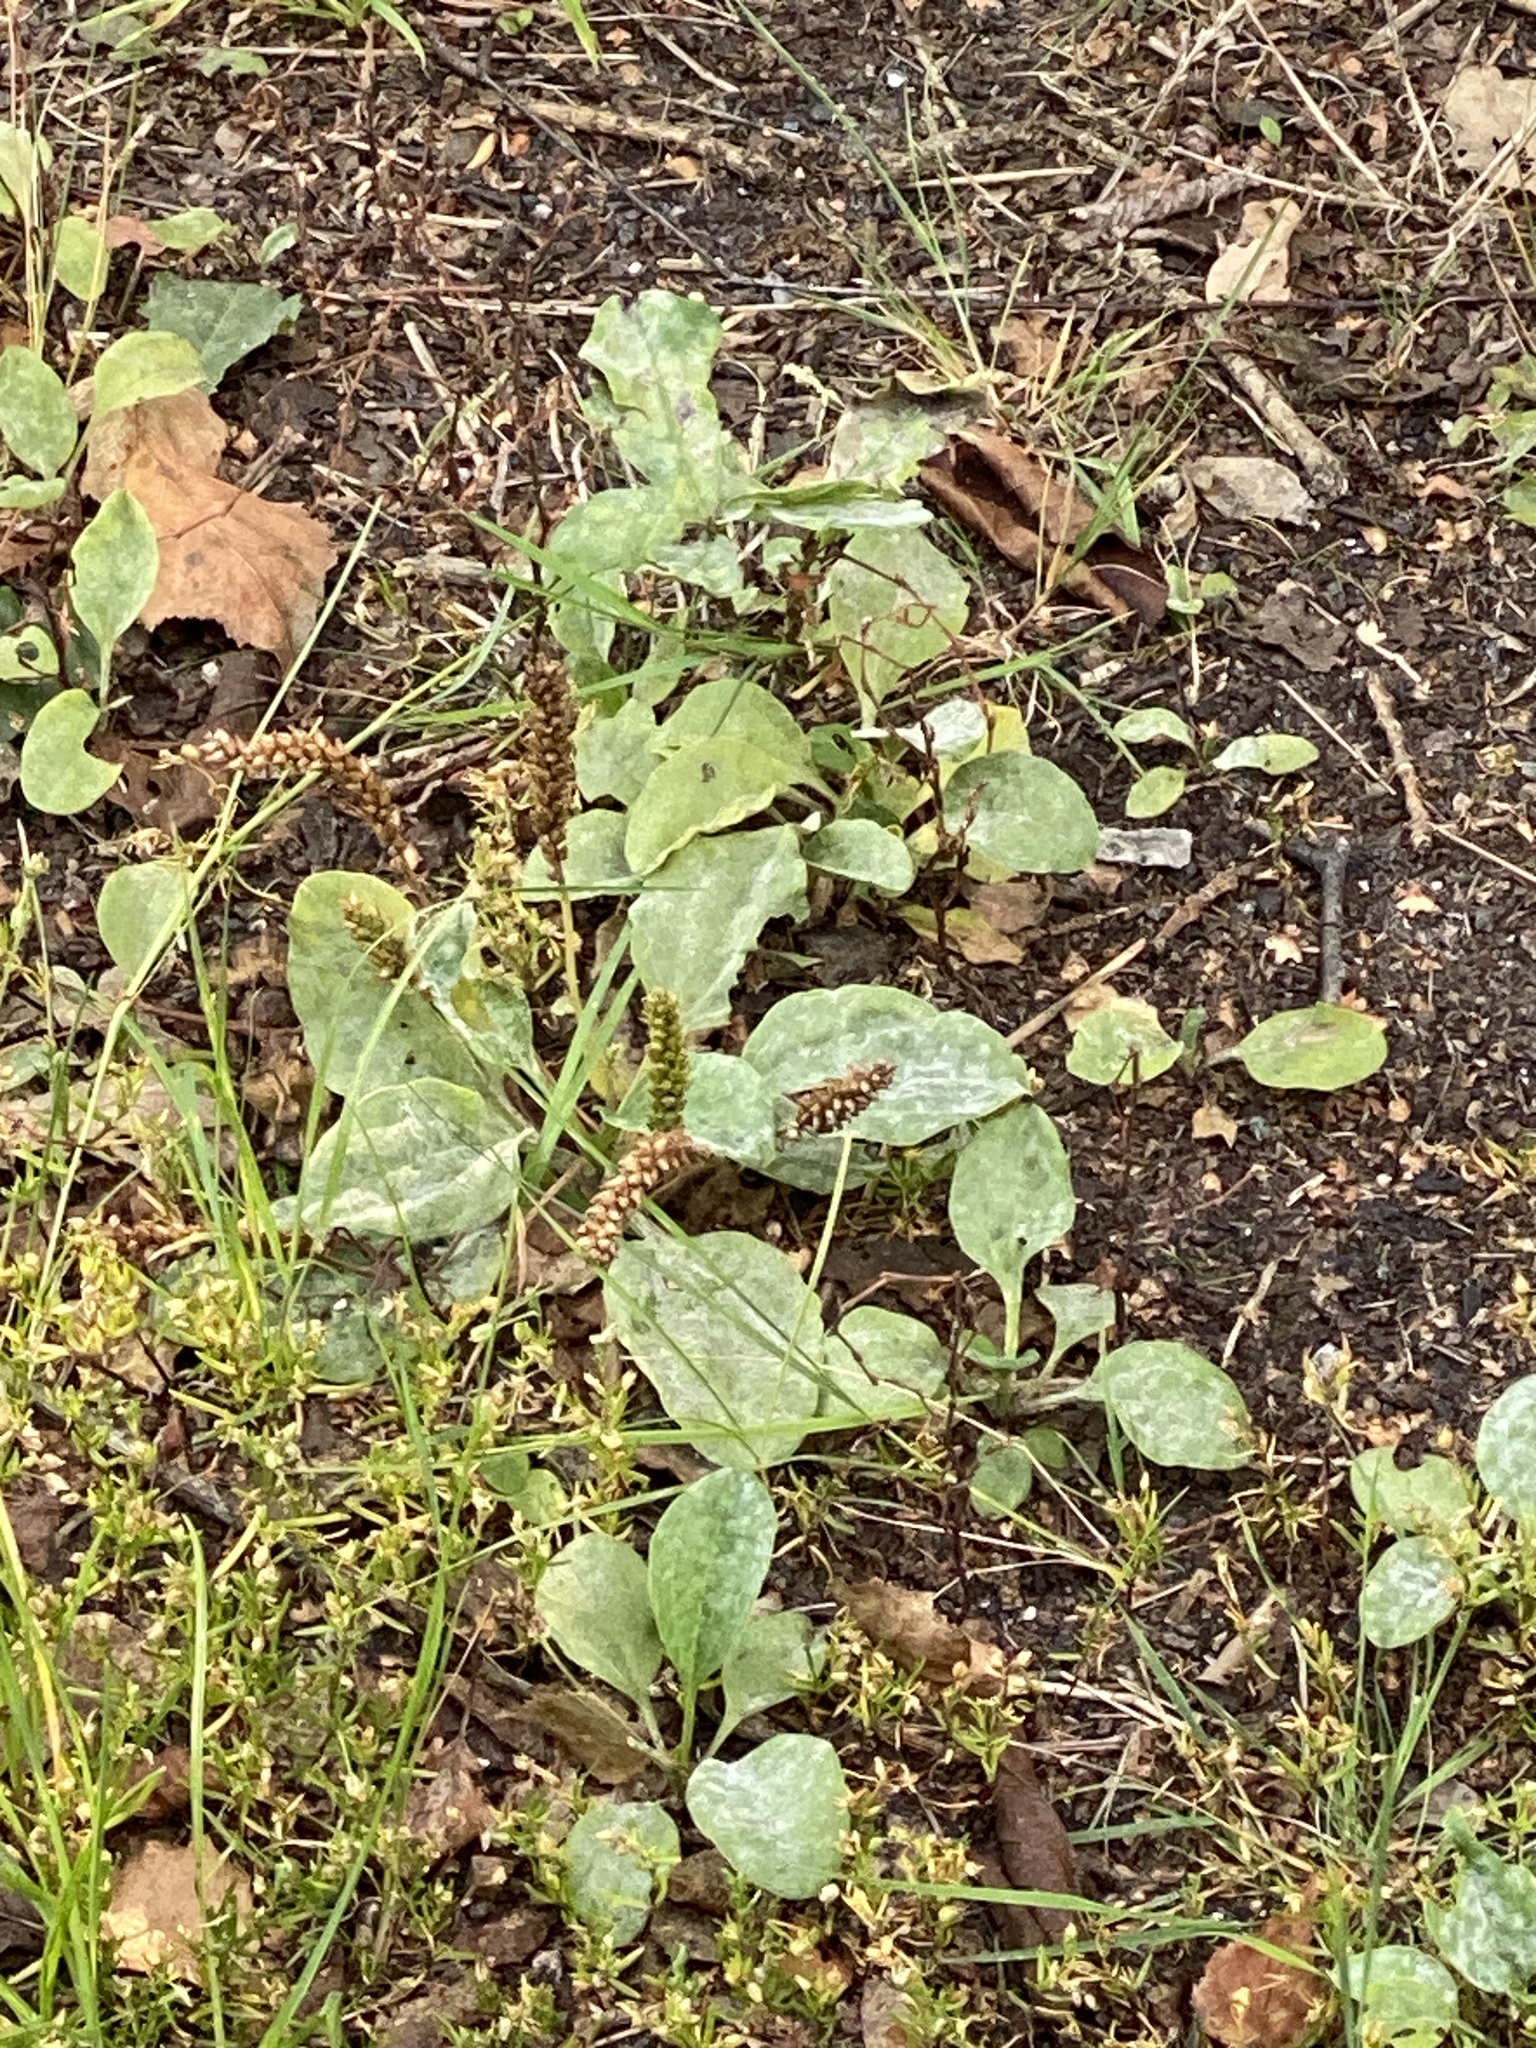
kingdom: Plantae
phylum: Tracheophyta
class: Magnoliopsida
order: Lamiales
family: Plantaginaceae
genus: Plantago
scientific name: Plantago major
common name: Common plantain
